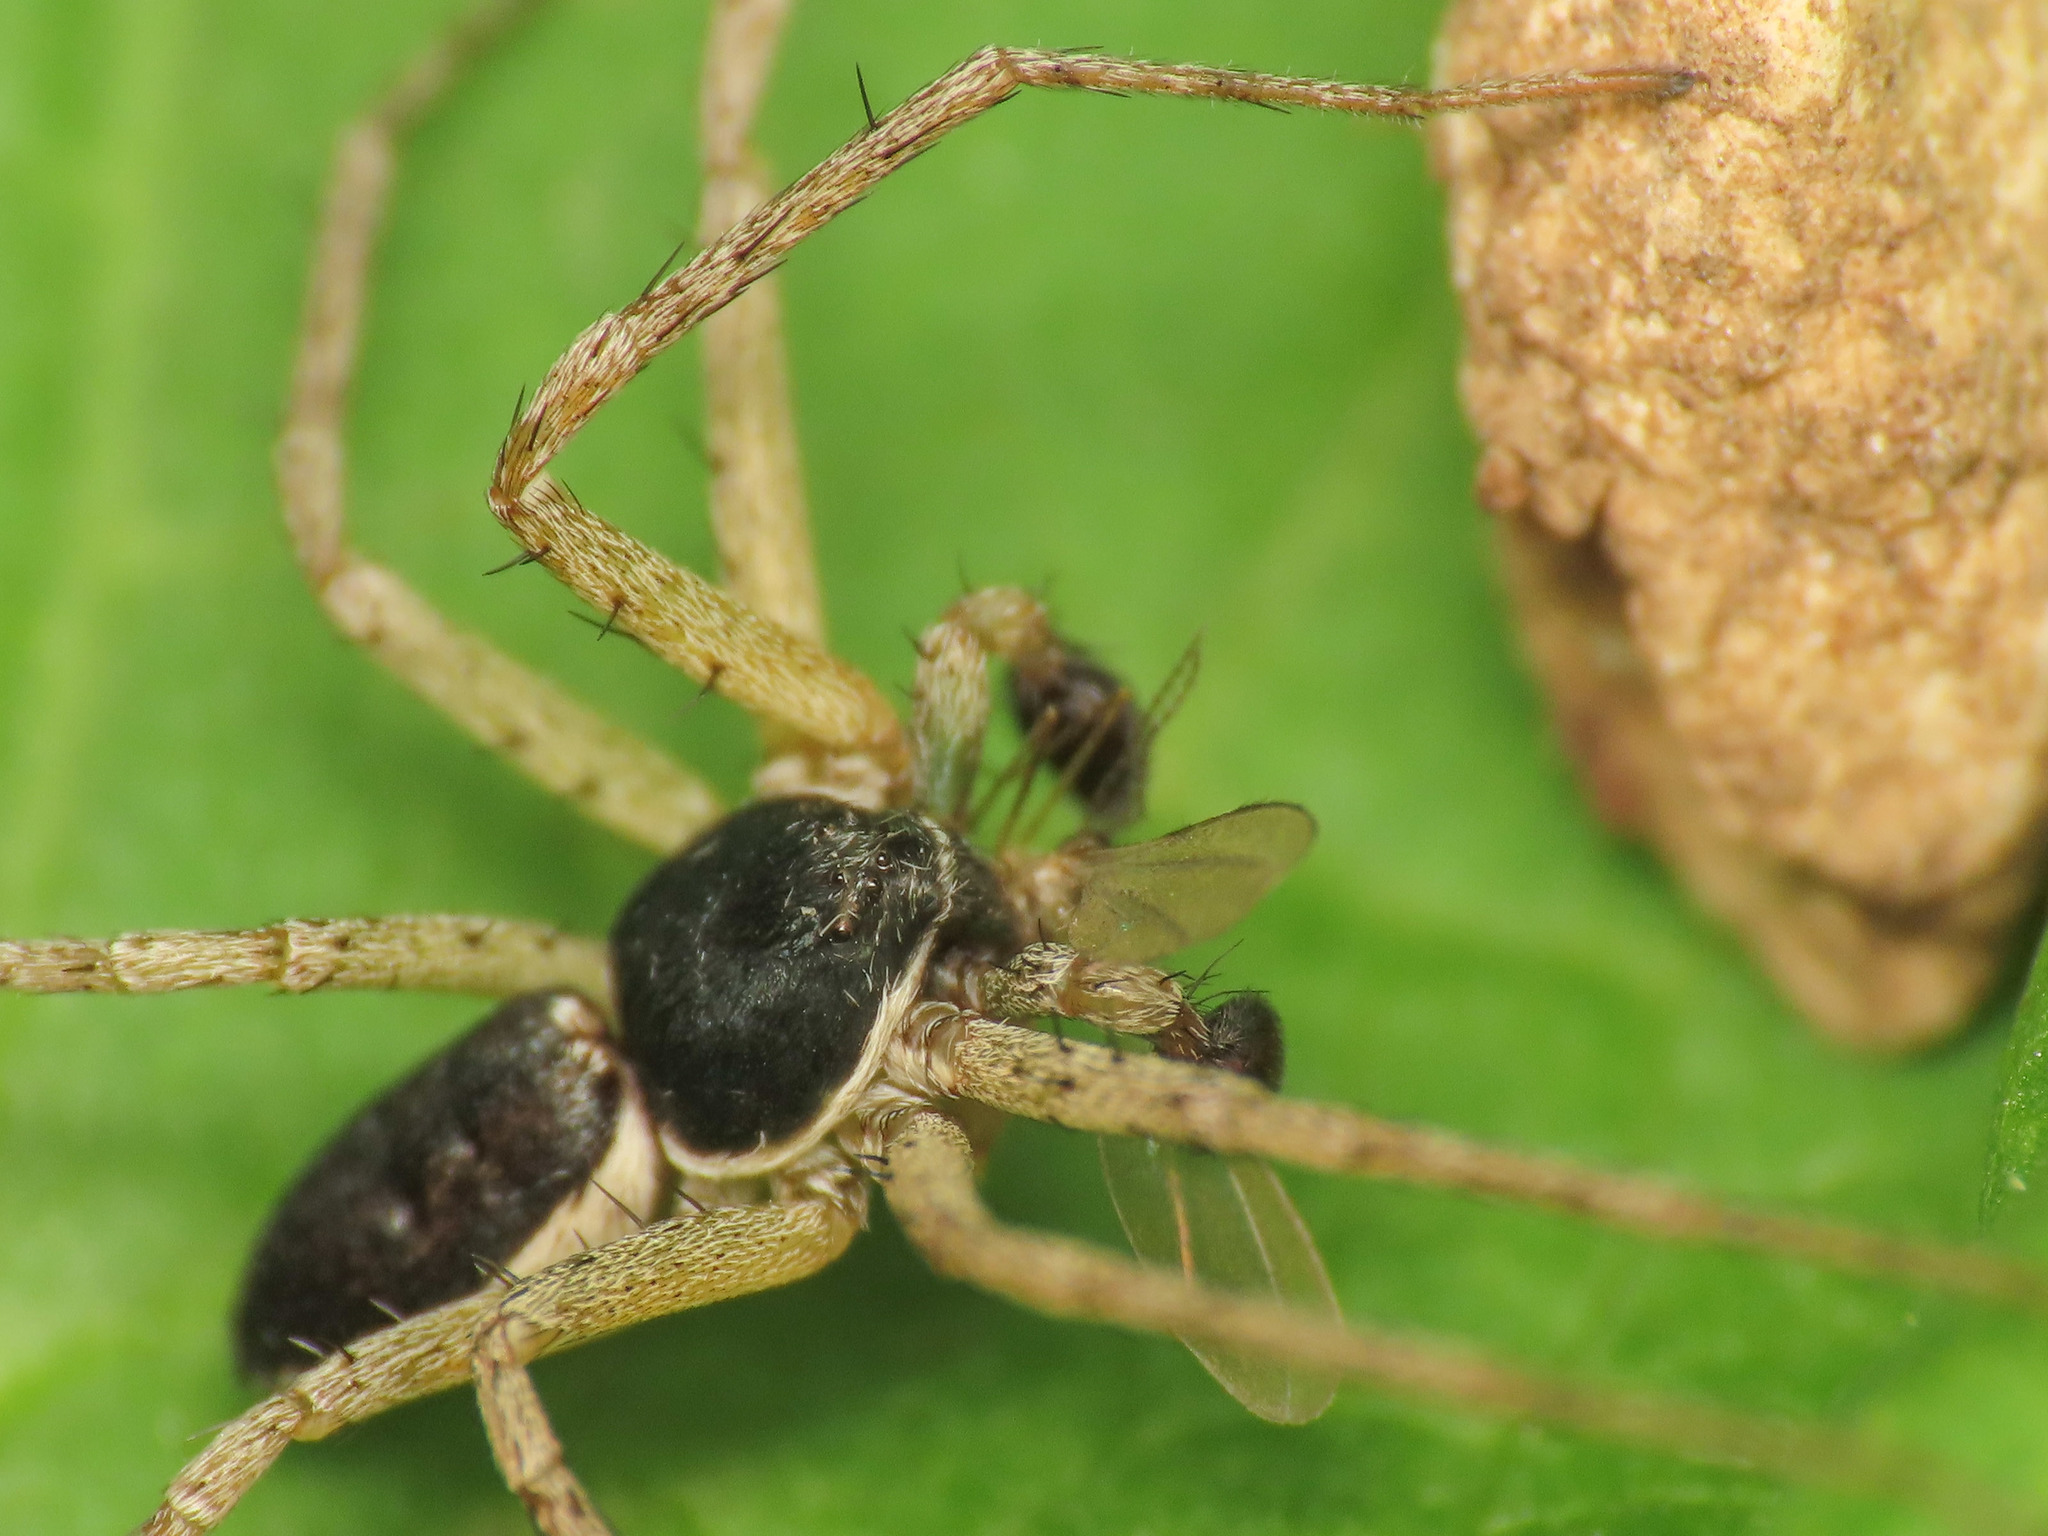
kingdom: Animalia
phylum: Arthropoda
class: Arachnida
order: Araneae
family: Philodromidae
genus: Philodromus
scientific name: Philodromus dispar
